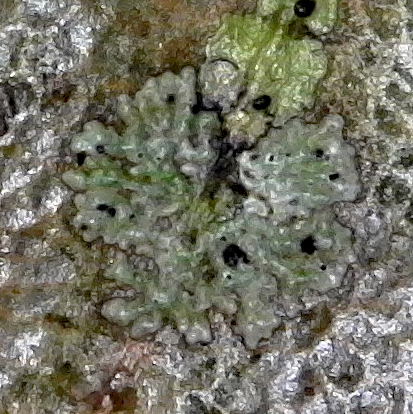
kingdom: Fungi
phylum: Ascomycota
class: Dothideomycetes
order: Strigulales
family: Strigulaceae
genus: Phyllocharis
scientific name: Phyllocharis orbicularis
